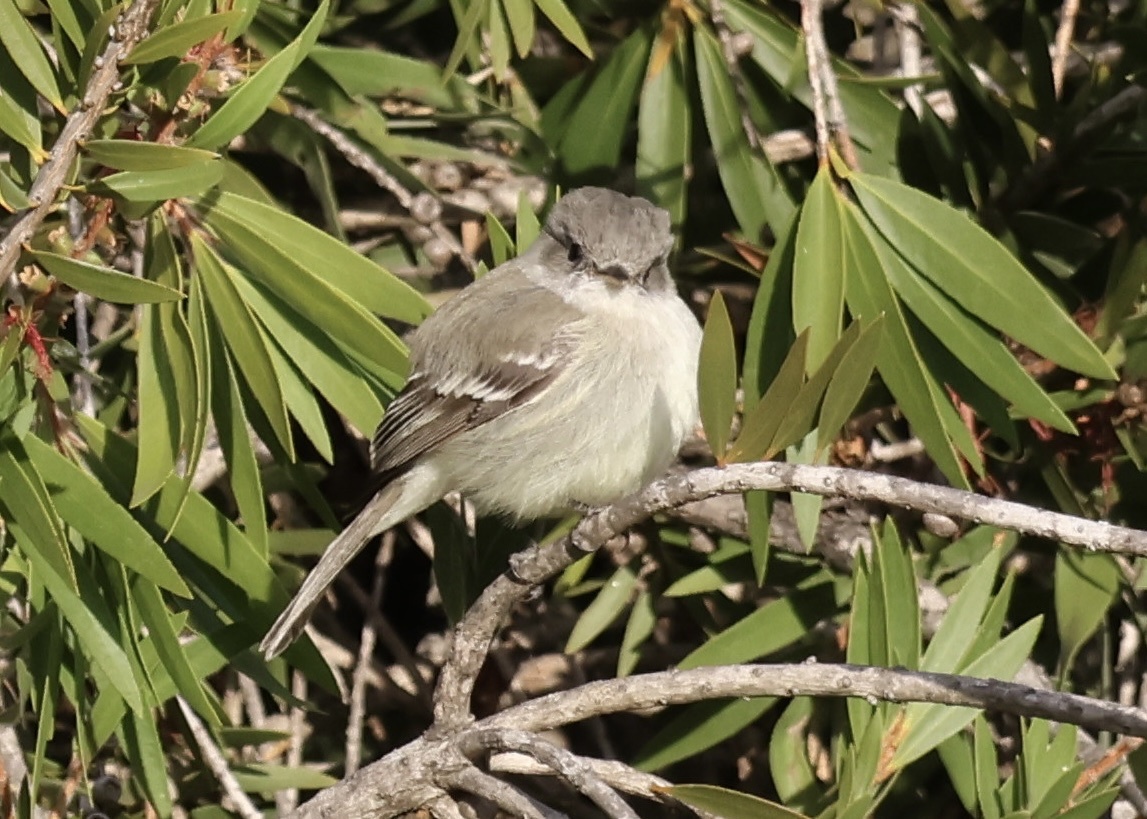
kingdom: Animalia
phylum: Chordata
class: Aves
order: Passeriformes
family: Tyrannidae
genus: Empidonax
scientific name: Empidonax wrightii
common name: Gray flycatcher
